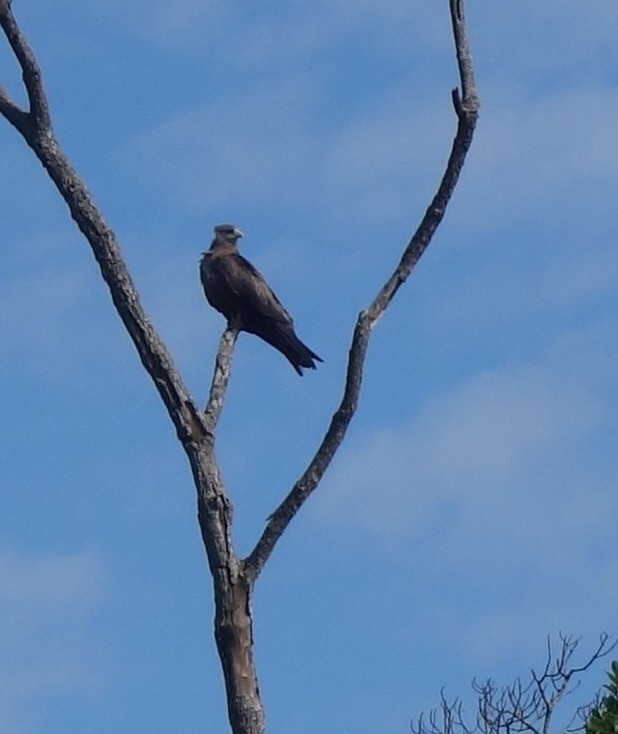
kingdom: Animalia
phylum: Chordata
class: Aves
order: Accipitriformes
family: Accipitridae
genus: Milvus
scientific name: Milvus migrans
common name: Black kite
